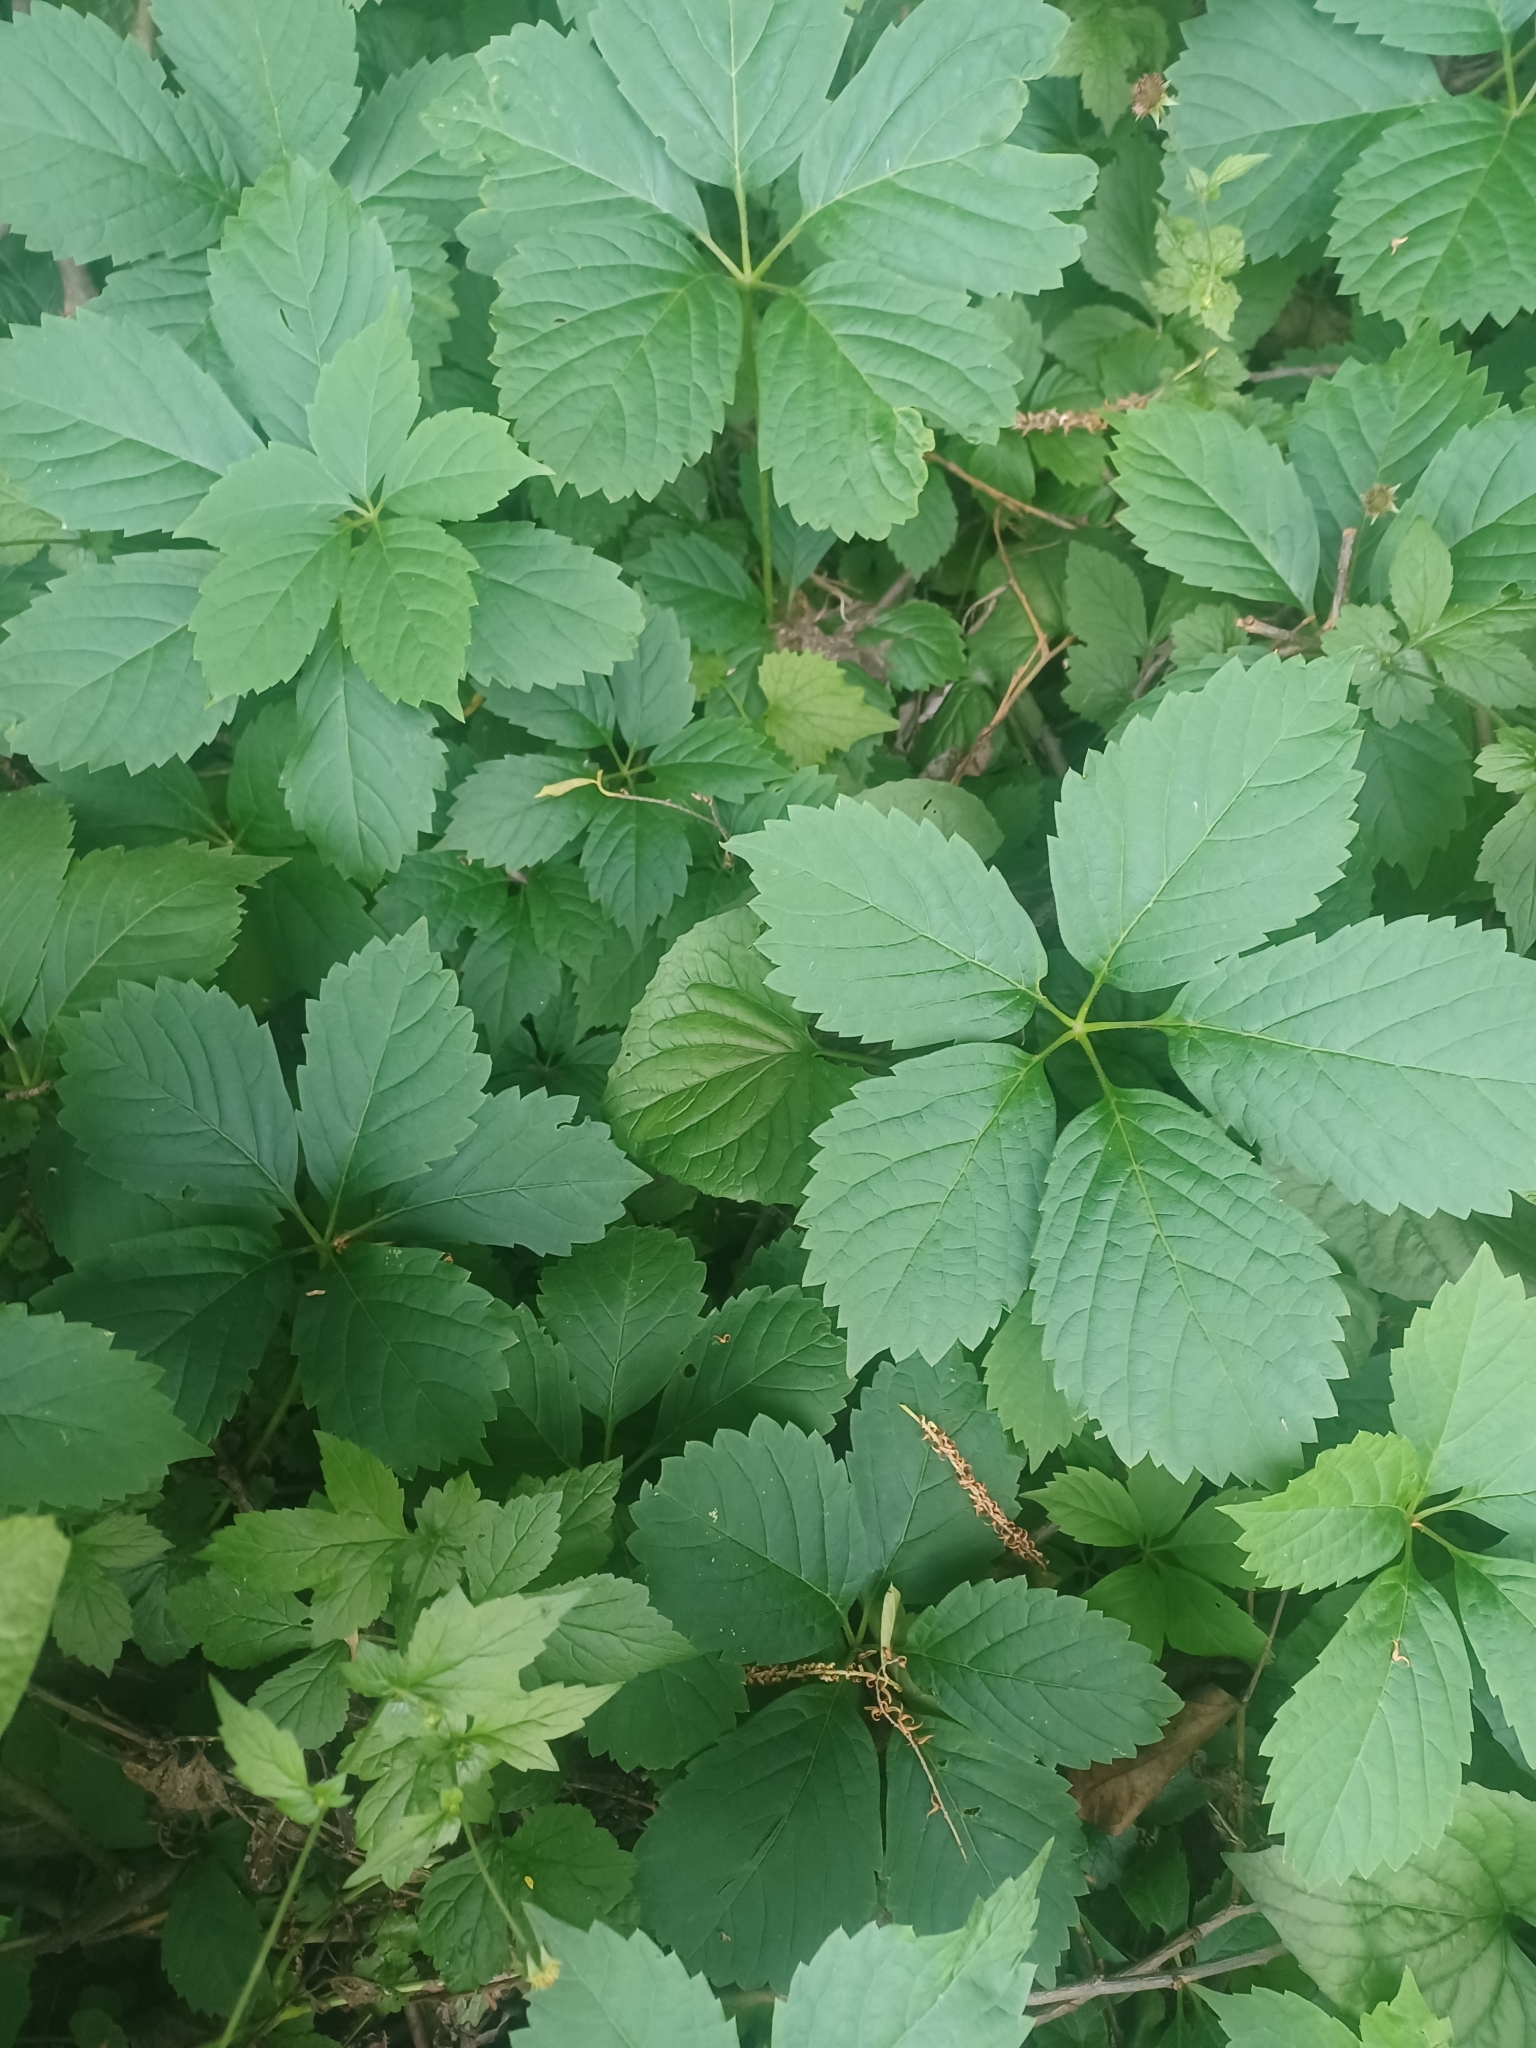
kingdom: Plantae
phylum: Tracheophyta
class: Magnoliopsida
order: Vitales
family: Vitaceae
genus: Parthenocissus
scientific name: Parthenocissus inserta
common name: False virginia-creeper
